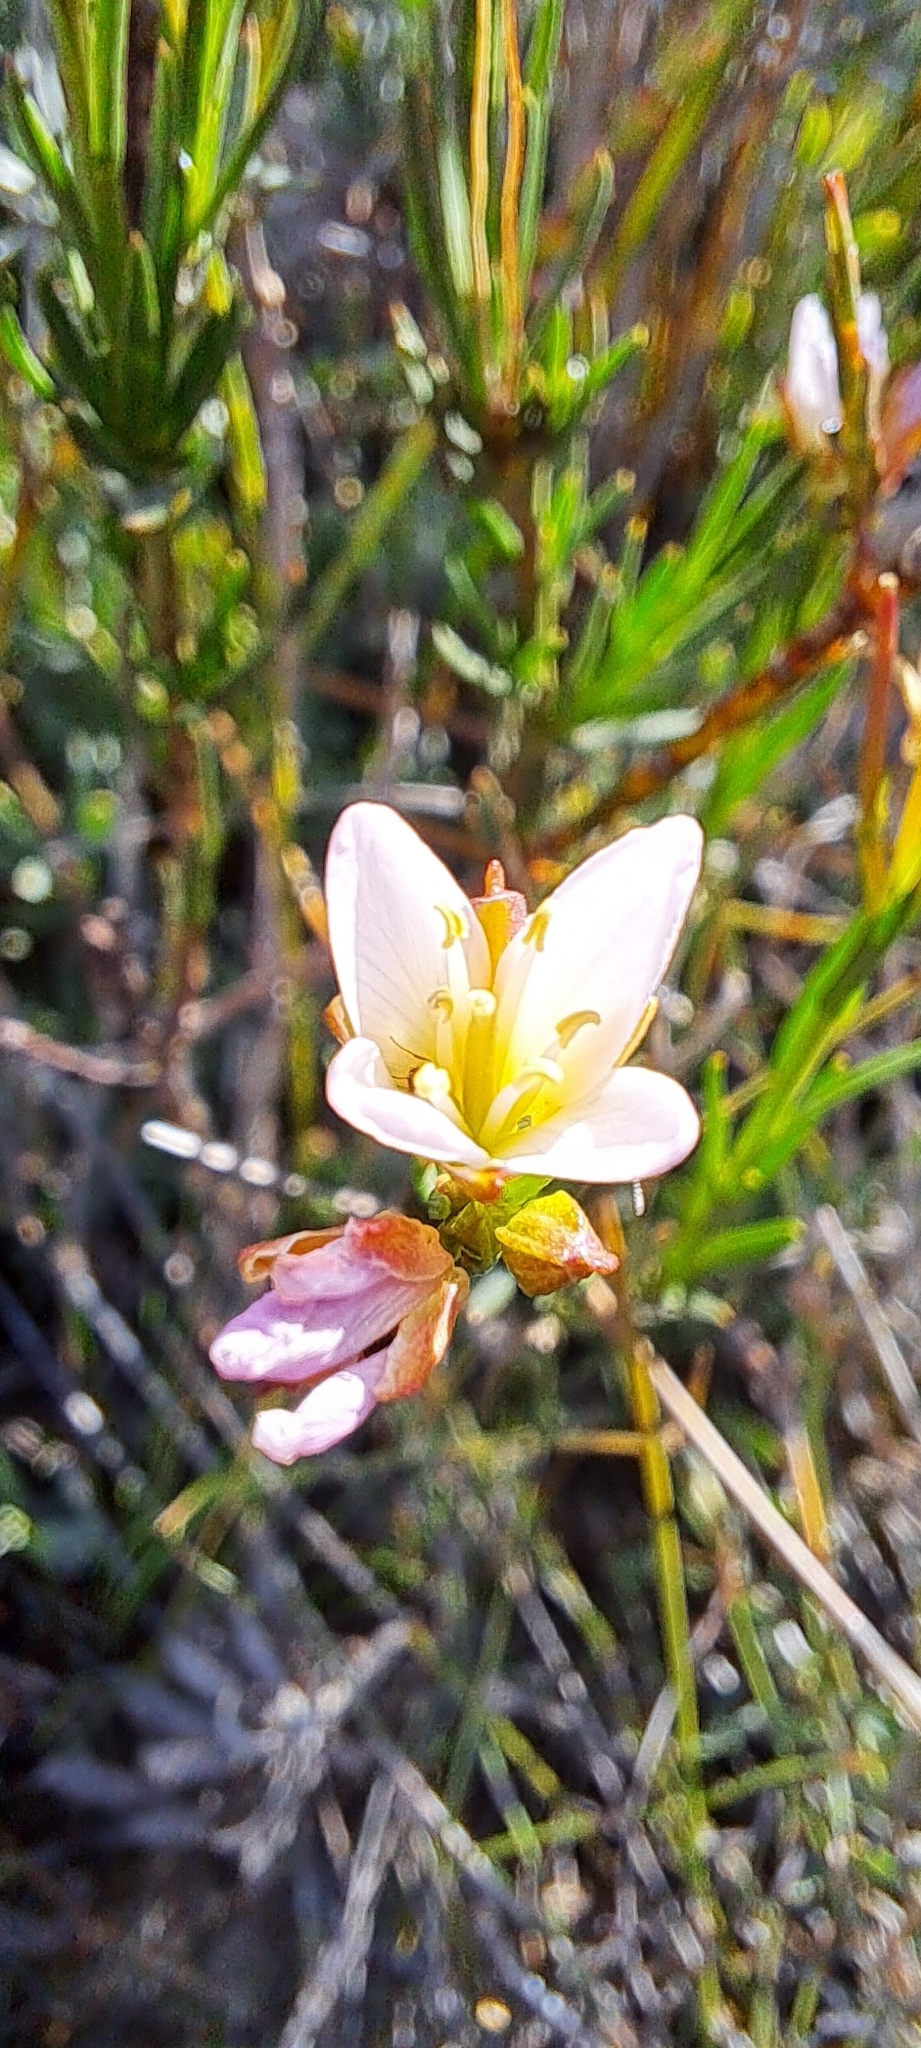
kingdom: Plantae
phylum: Tracheophyta
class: Magnoliopsida
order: Brassicales
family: Brassicaceae
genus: Heliophila
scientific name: Heliophila scoparia
